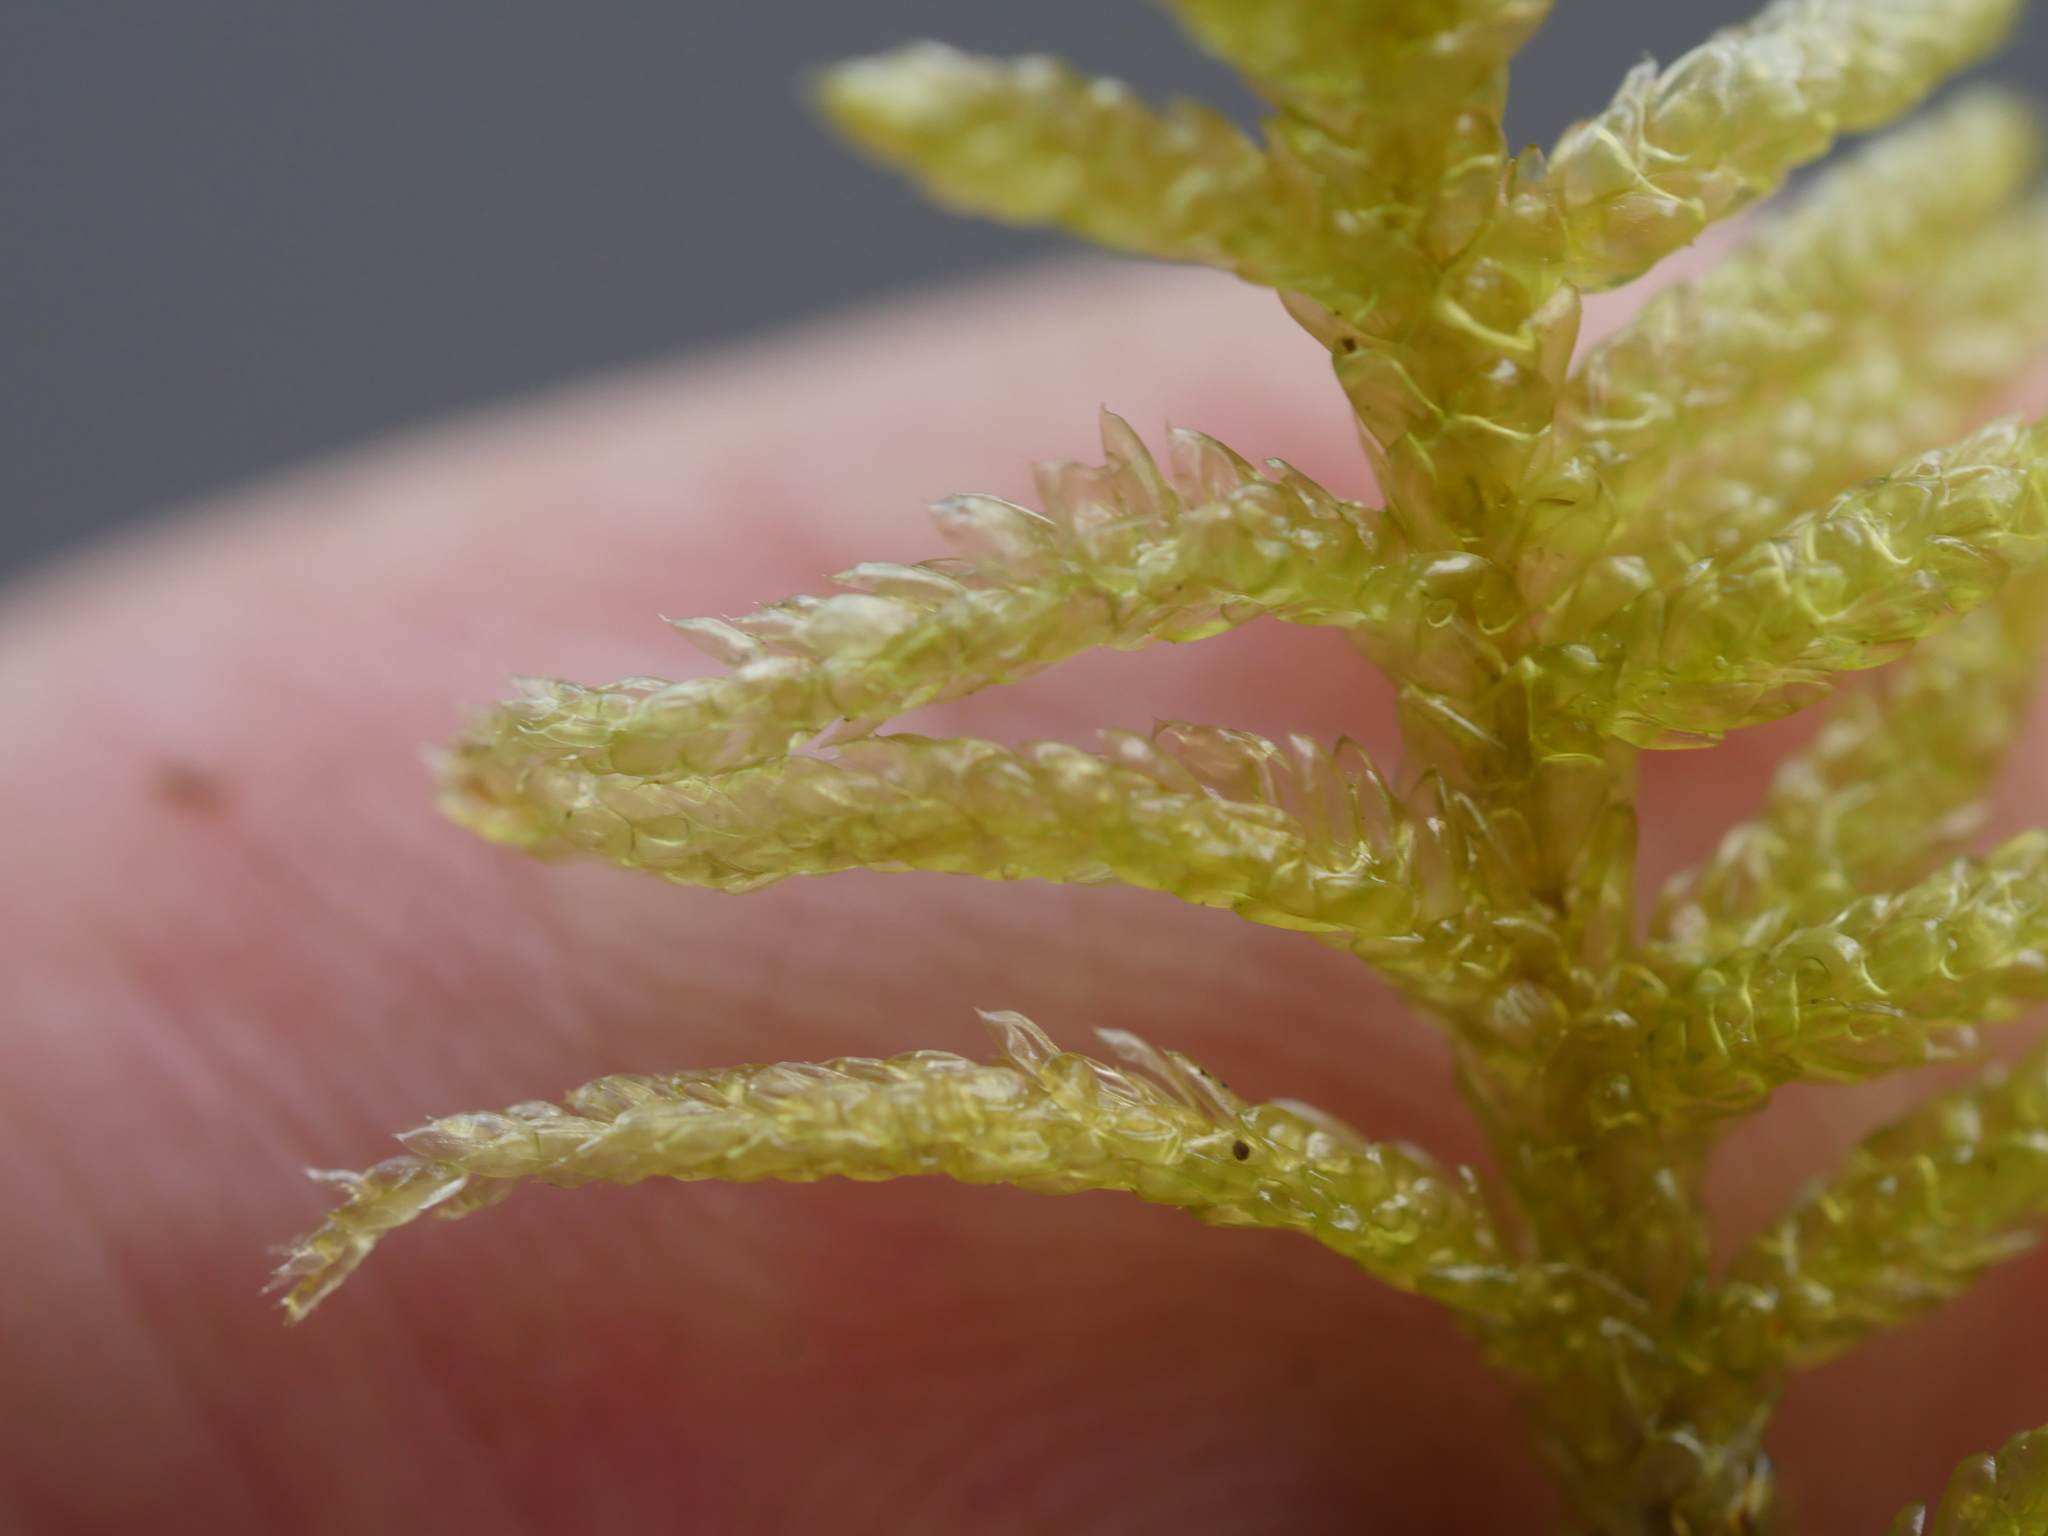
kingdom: Plantae
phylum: Bryophyta
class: Bryopsida
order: Hypnales
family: Brachytheciaceae
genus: Pseudoscleropodium
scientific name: Pseudoscleropodium purum
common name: Neat feather-moss
